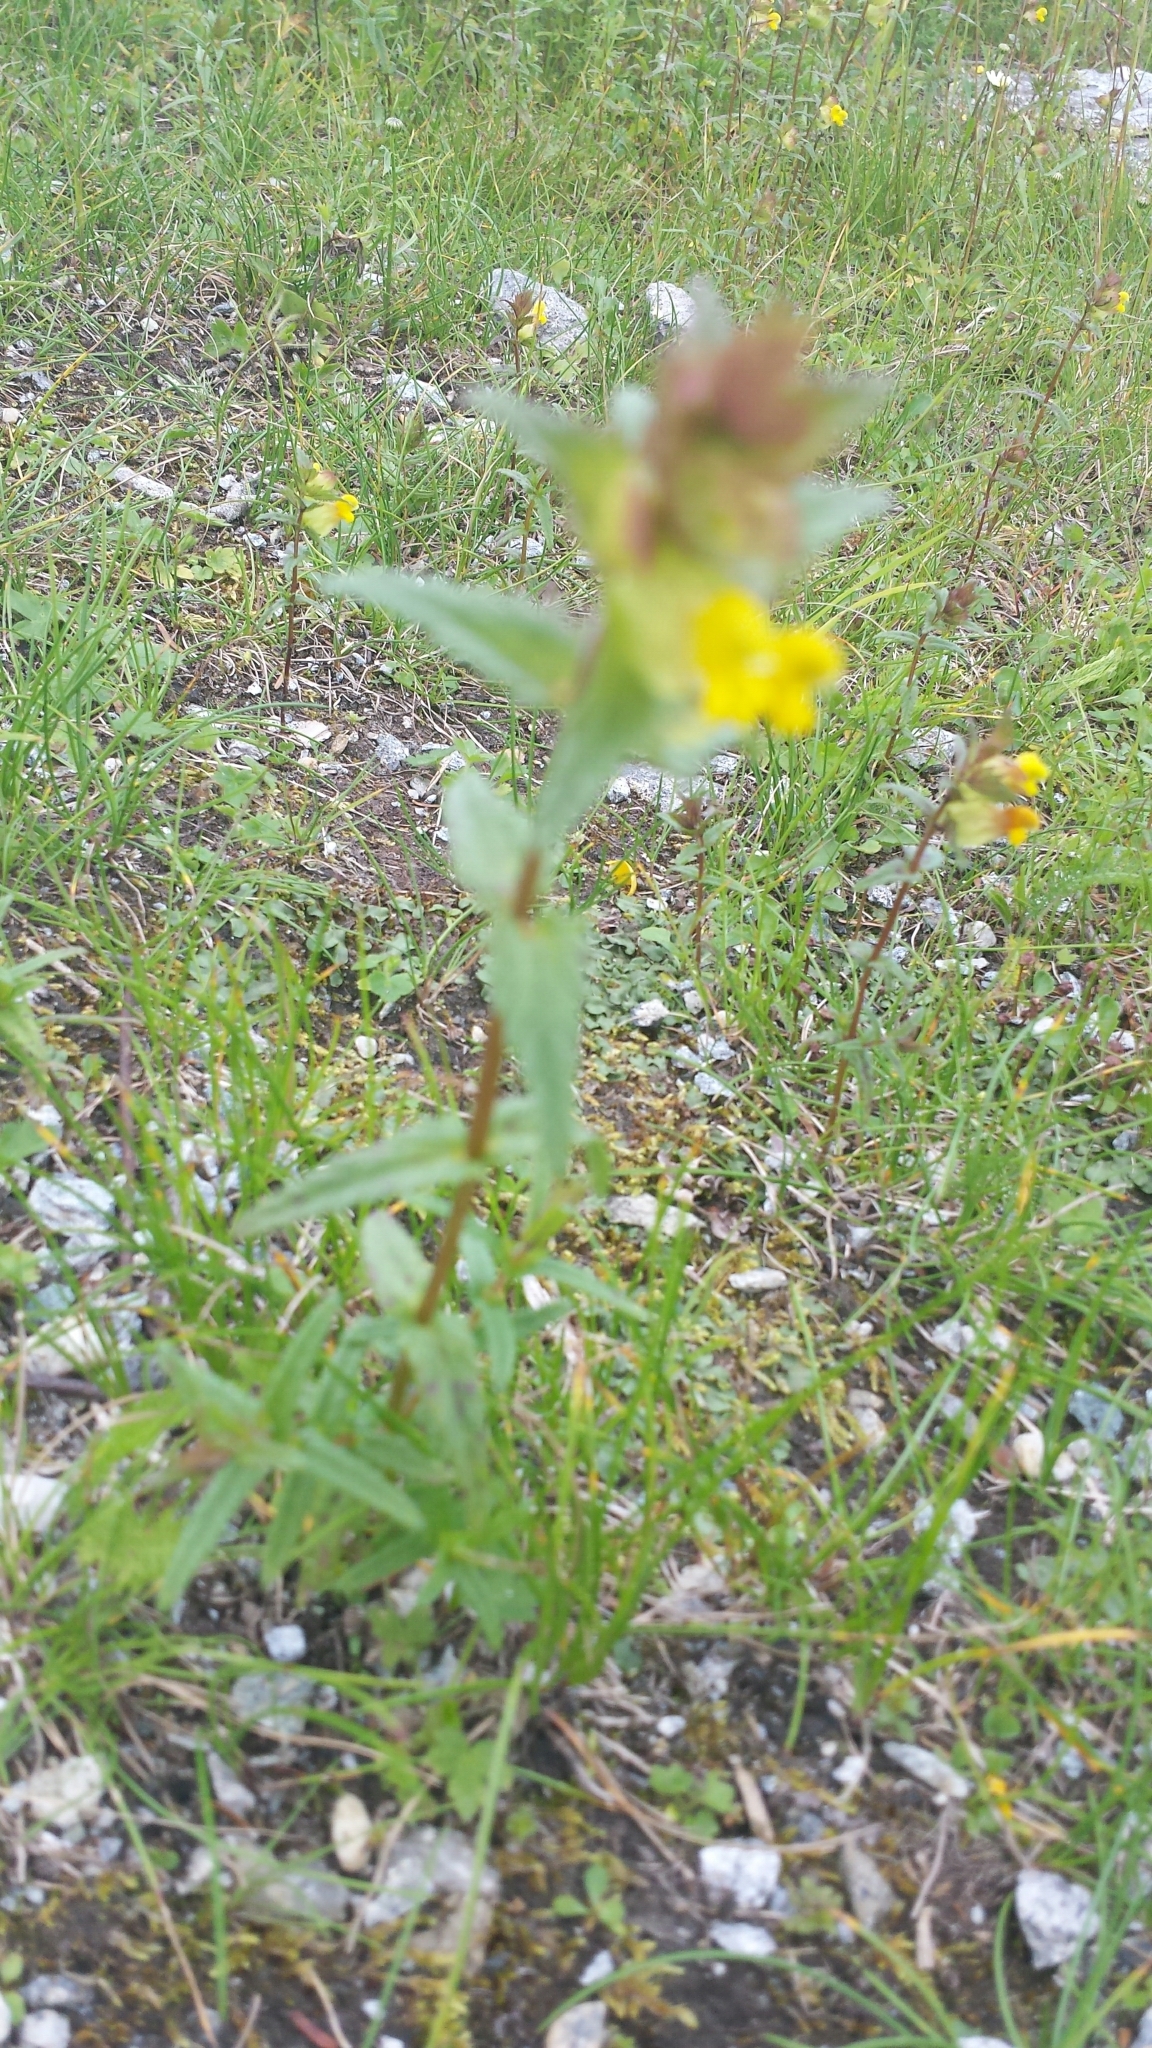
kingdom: Plantae
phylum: Tracheophyta
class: Magnoliopsida
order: Lamiales
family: Orobanchaceae
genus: Rhinanthus
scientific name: Rhinanthus minor
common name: Yellow-rattle
